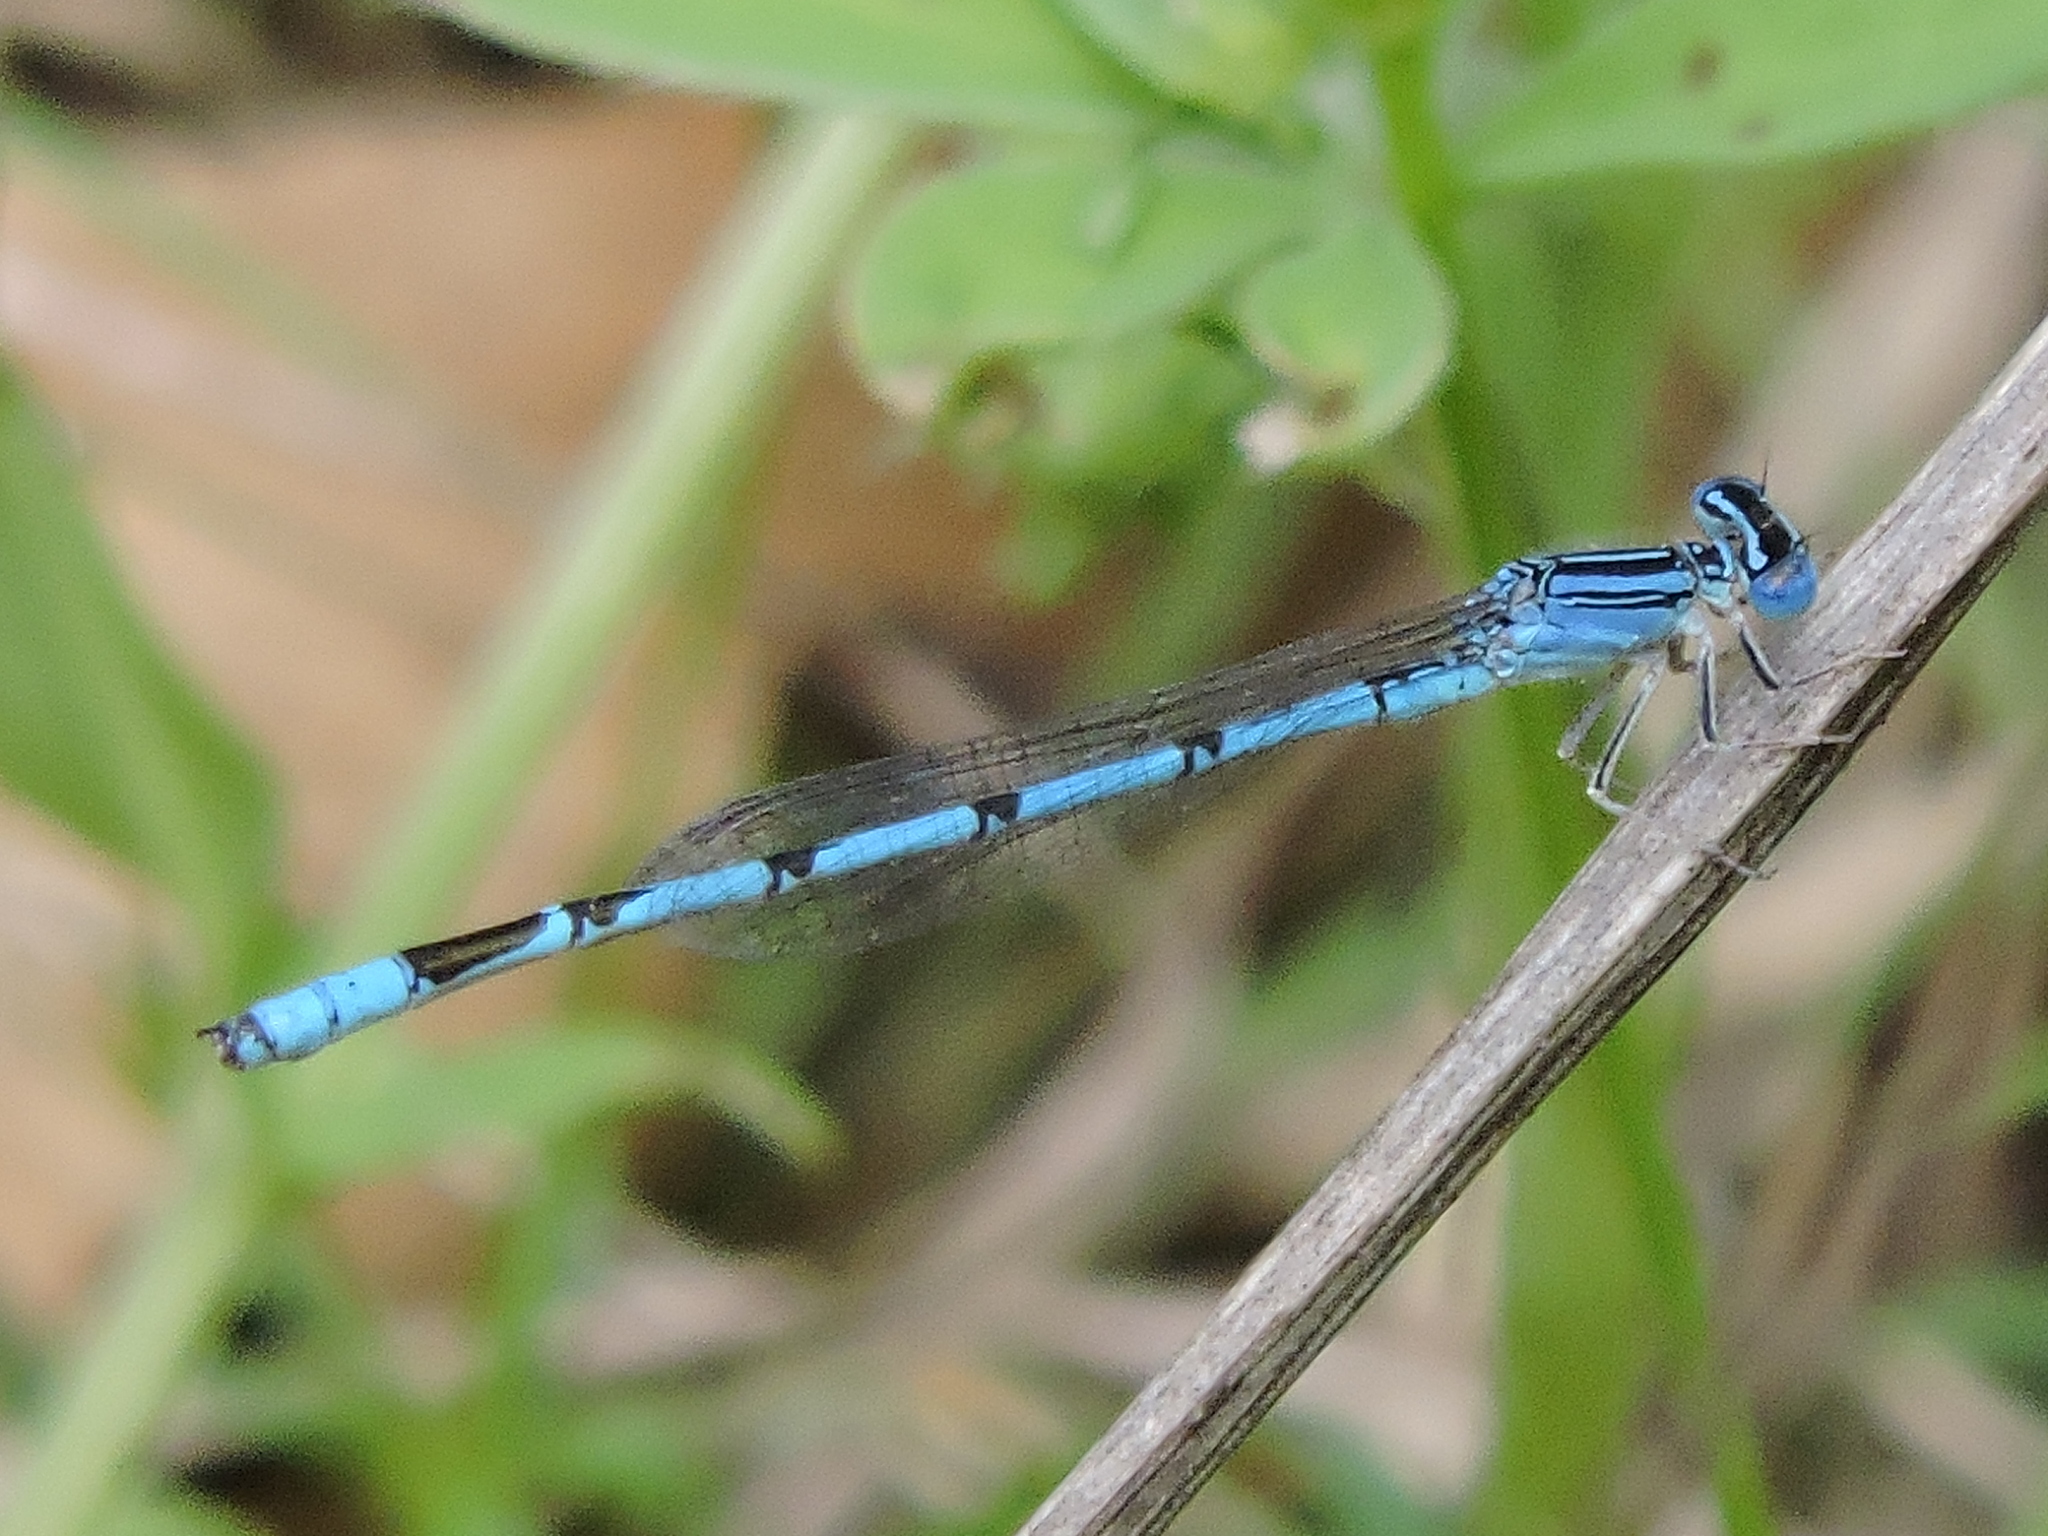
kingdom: Animalia
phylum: Arthropoda
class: Insecta
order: Odonata
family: Coenagrionidae
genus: Enallagma
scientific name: Enallagma basidens
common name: Double-striped bluet
